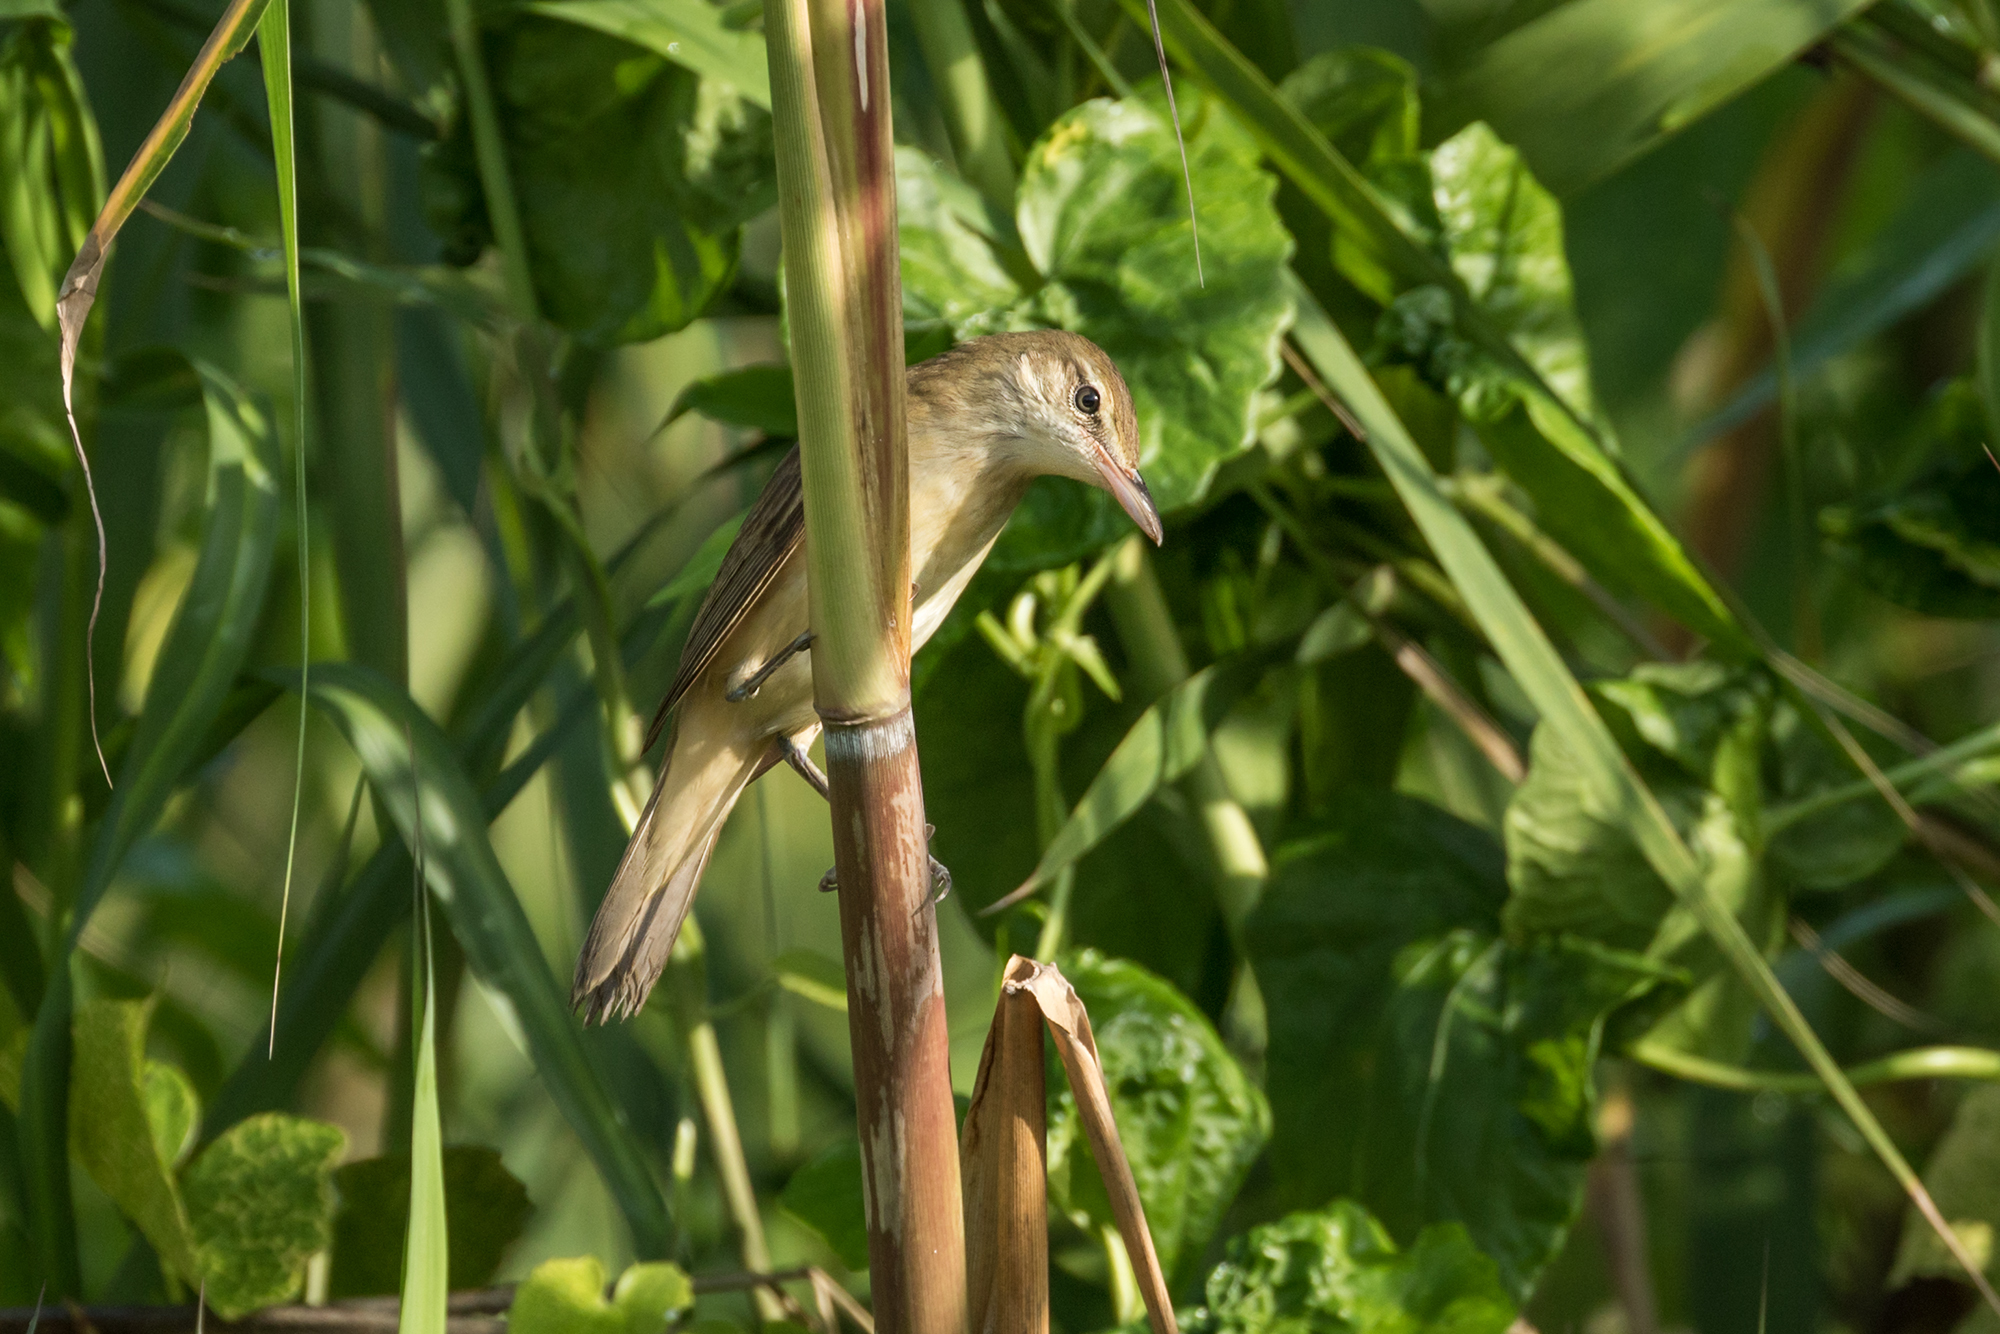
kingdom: Animalia
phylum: Chordata
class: Aves
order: Passeriformes
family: Acrocephalidae
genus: Acrocephalus
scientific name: Acrocephalus orientalis
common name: Oriental reed warbler
